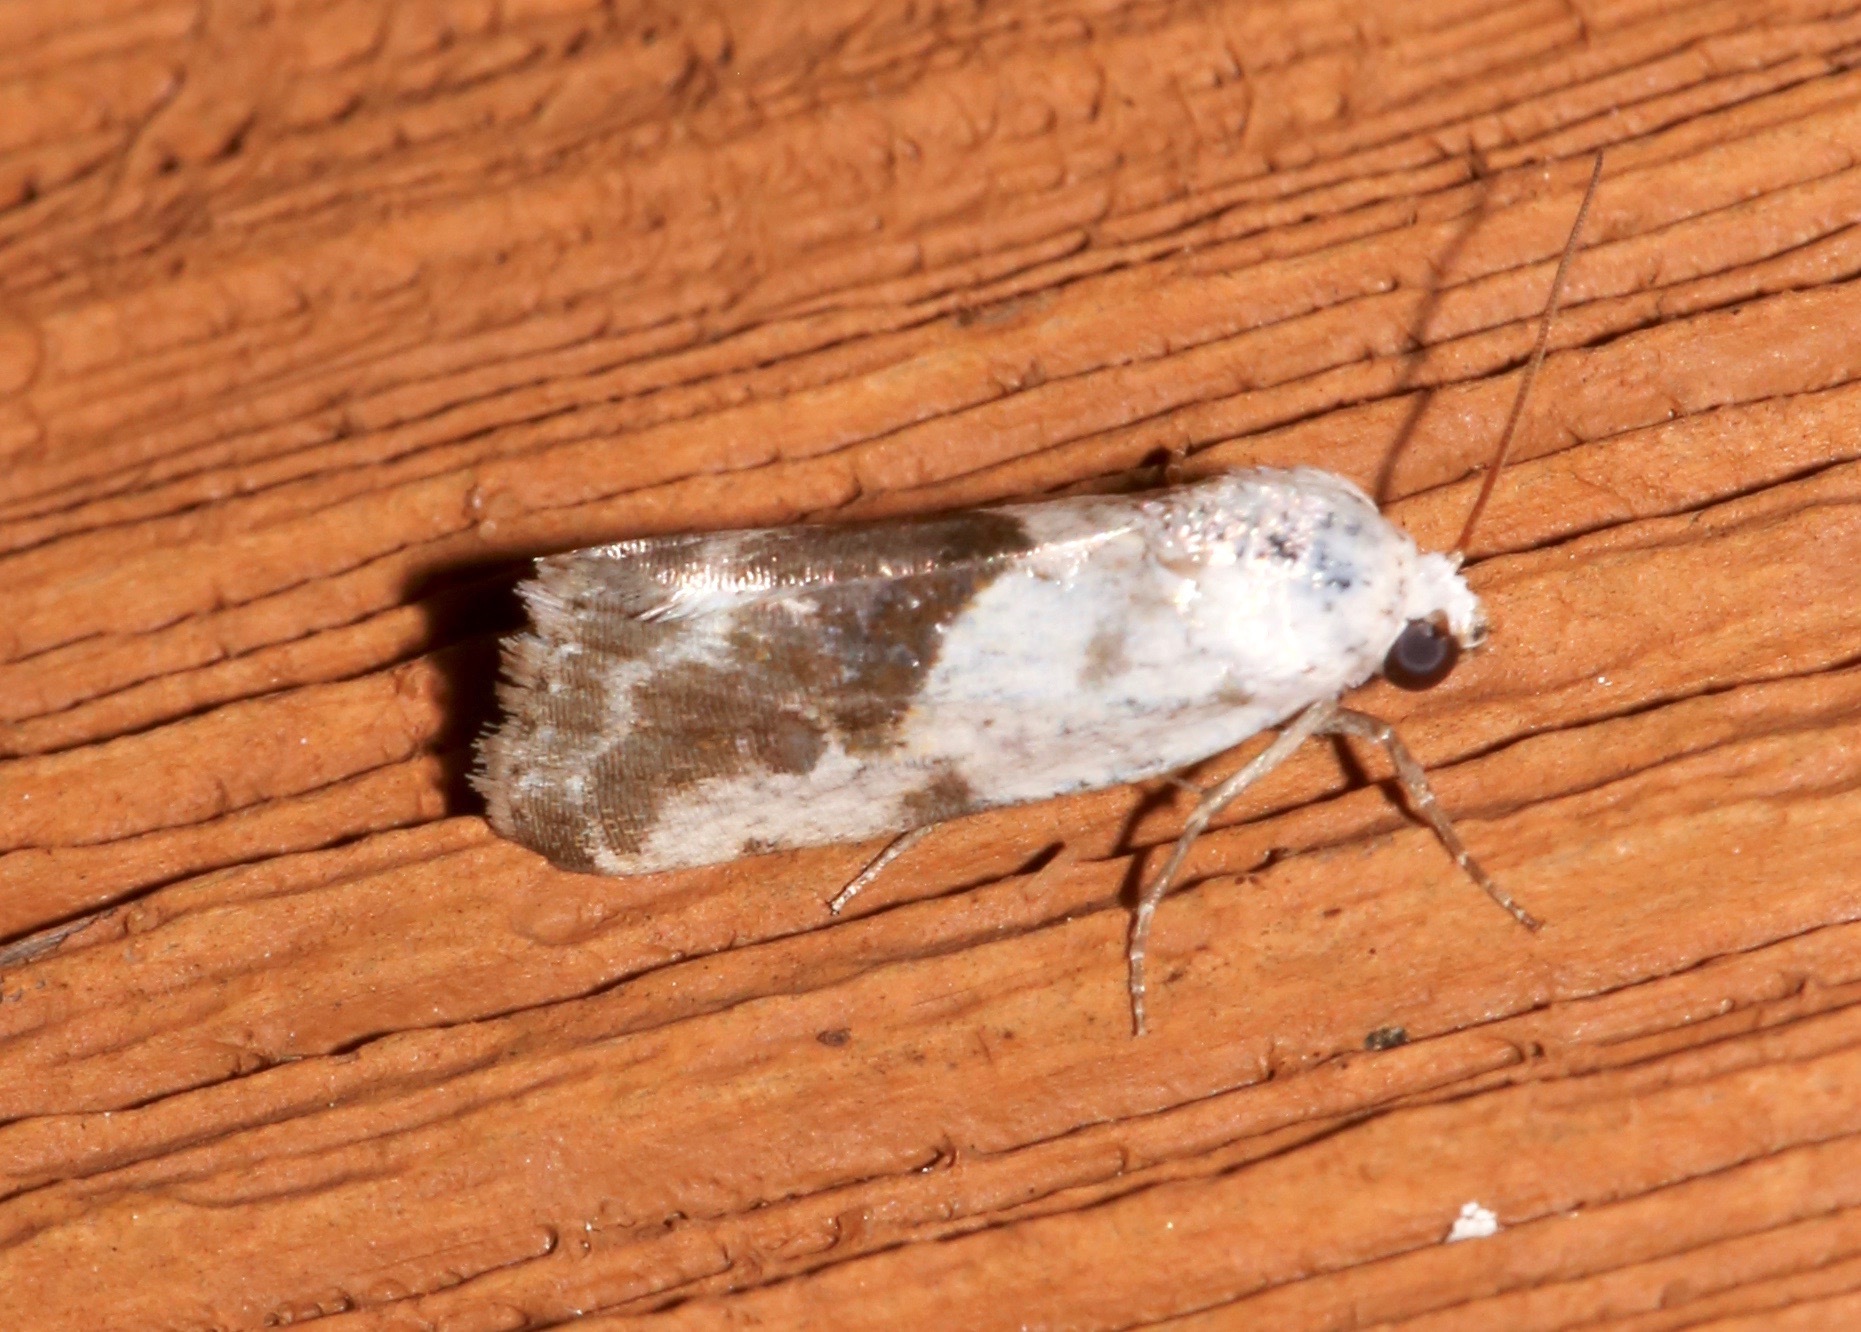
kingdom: Animalia
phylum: Arthropoda
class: Insecta
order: Lepidoptera
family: Noctuidae
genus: Acontia
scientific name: Acontia candefacta
